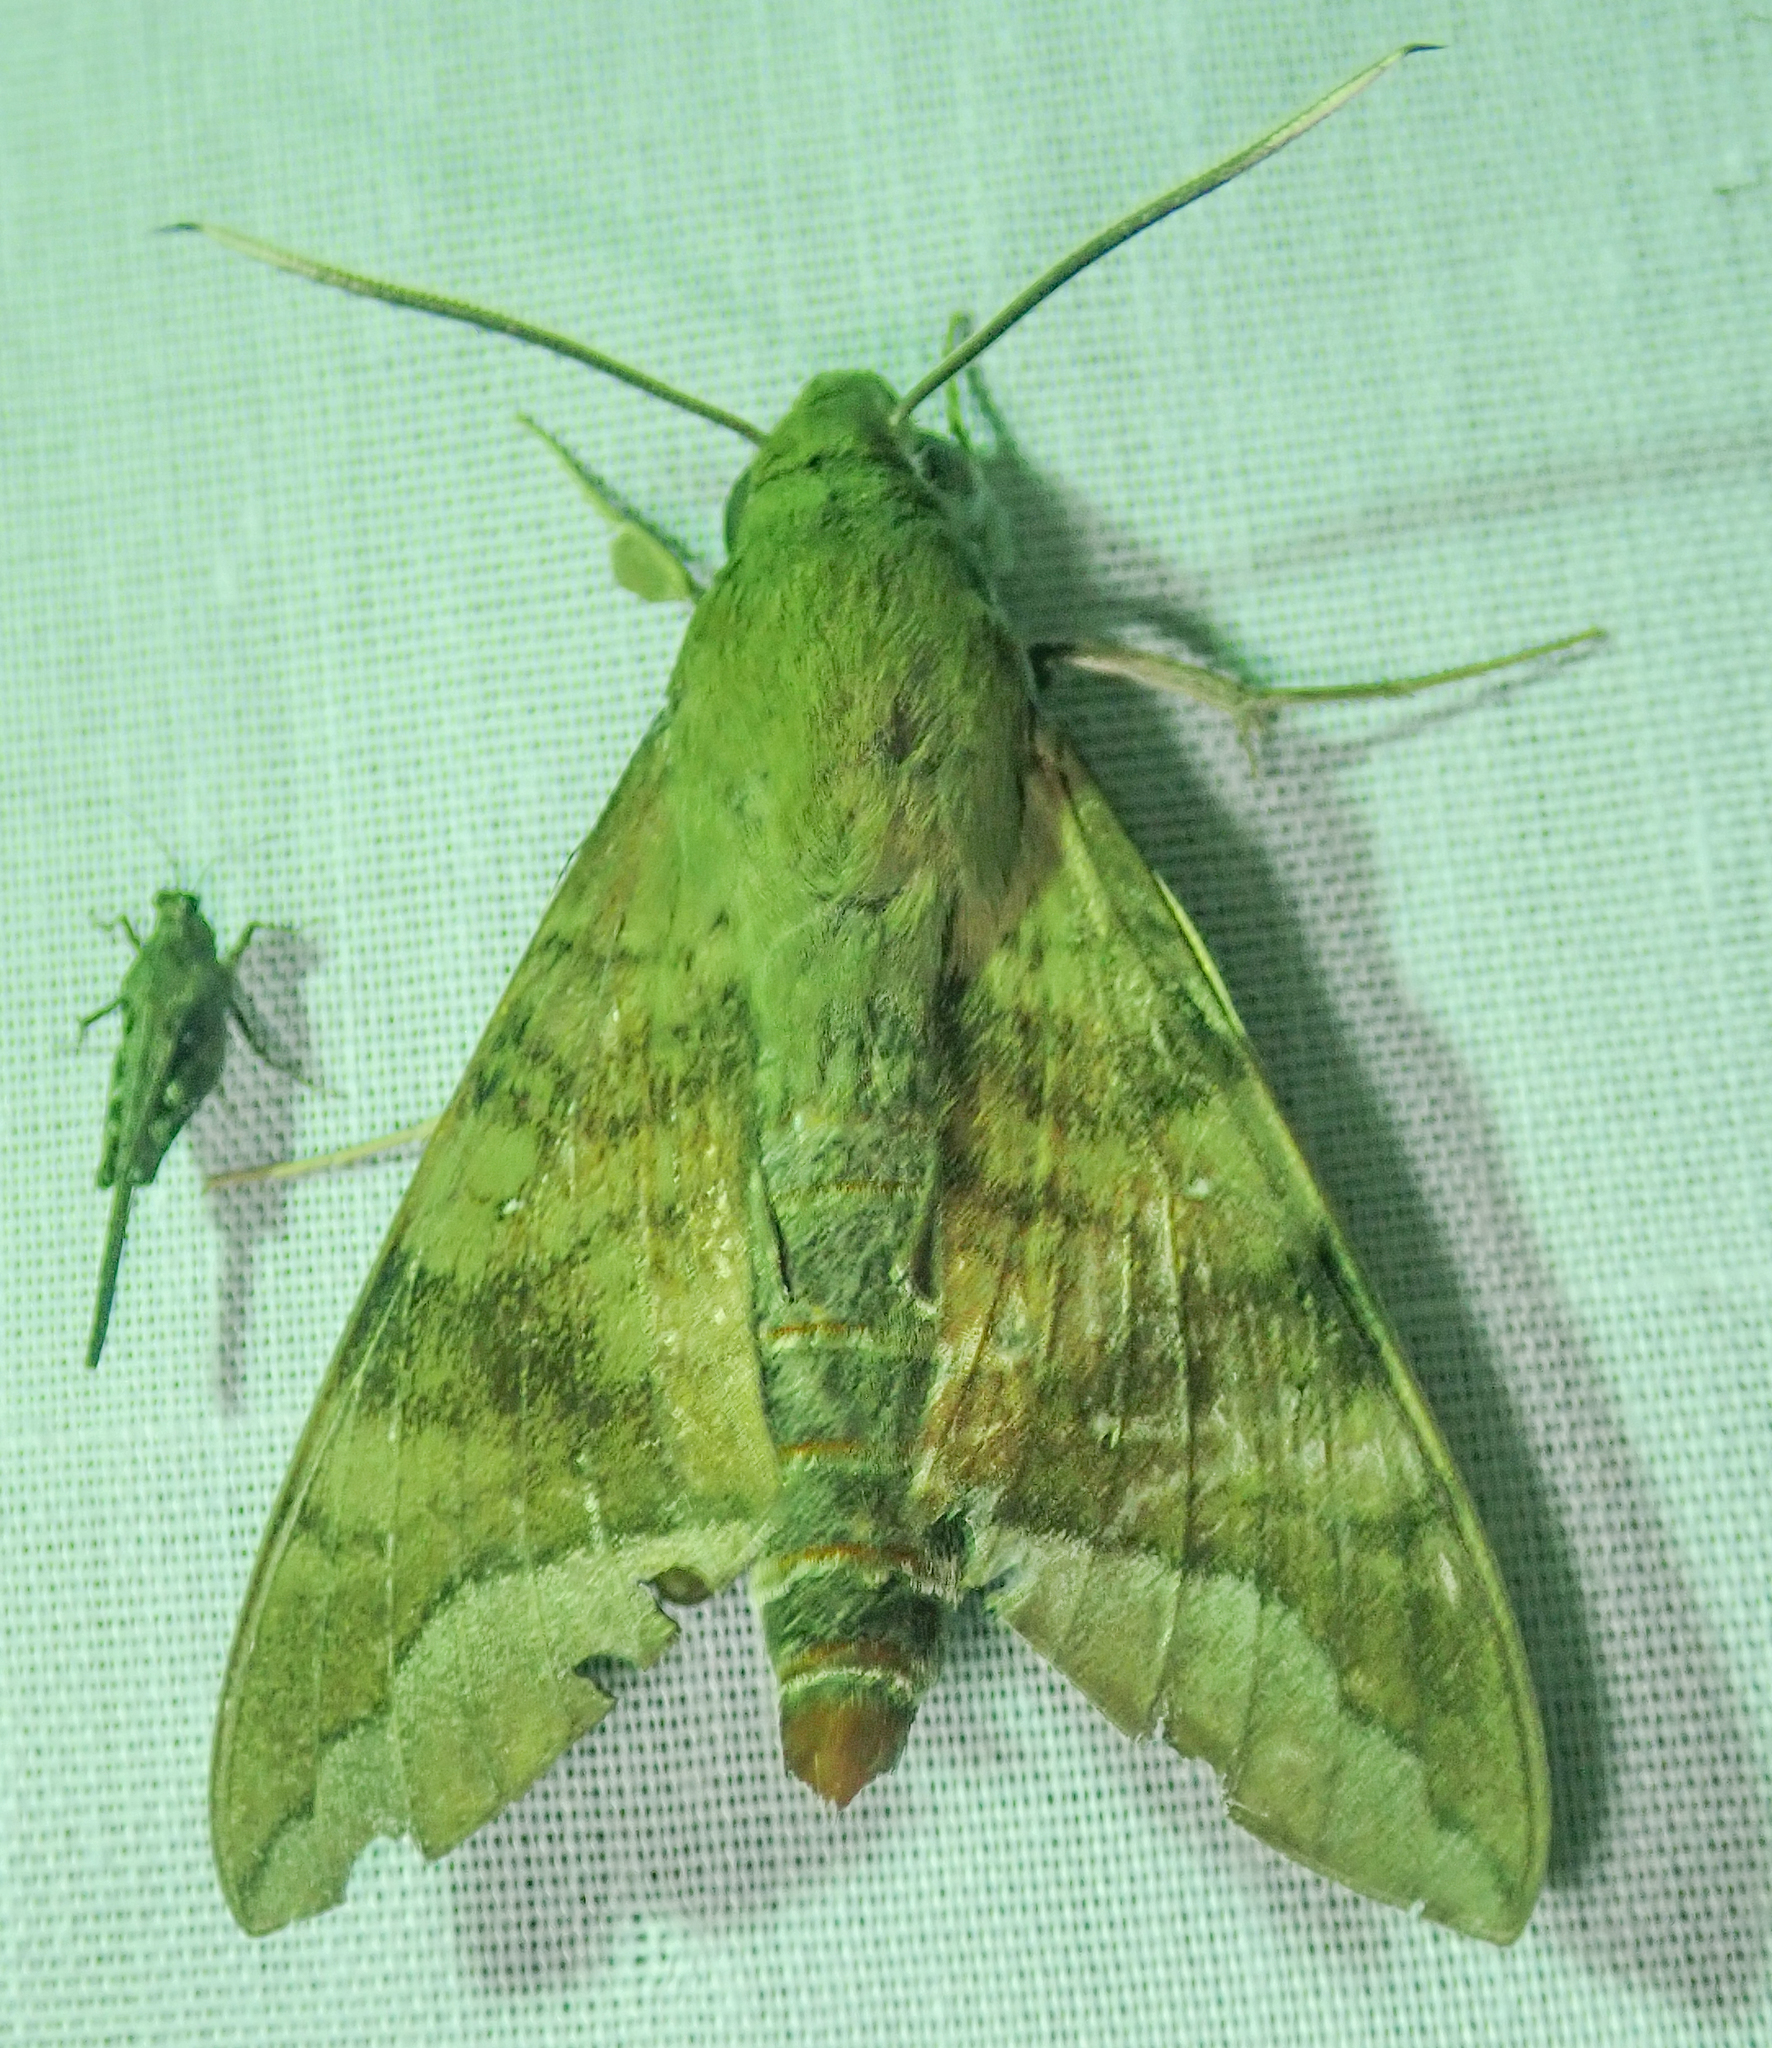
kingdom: Animalia
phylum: Arthropoda
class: Insecta
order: Lepidoptera
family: Sphingidae
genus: Nephele
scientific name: Nephele comma
